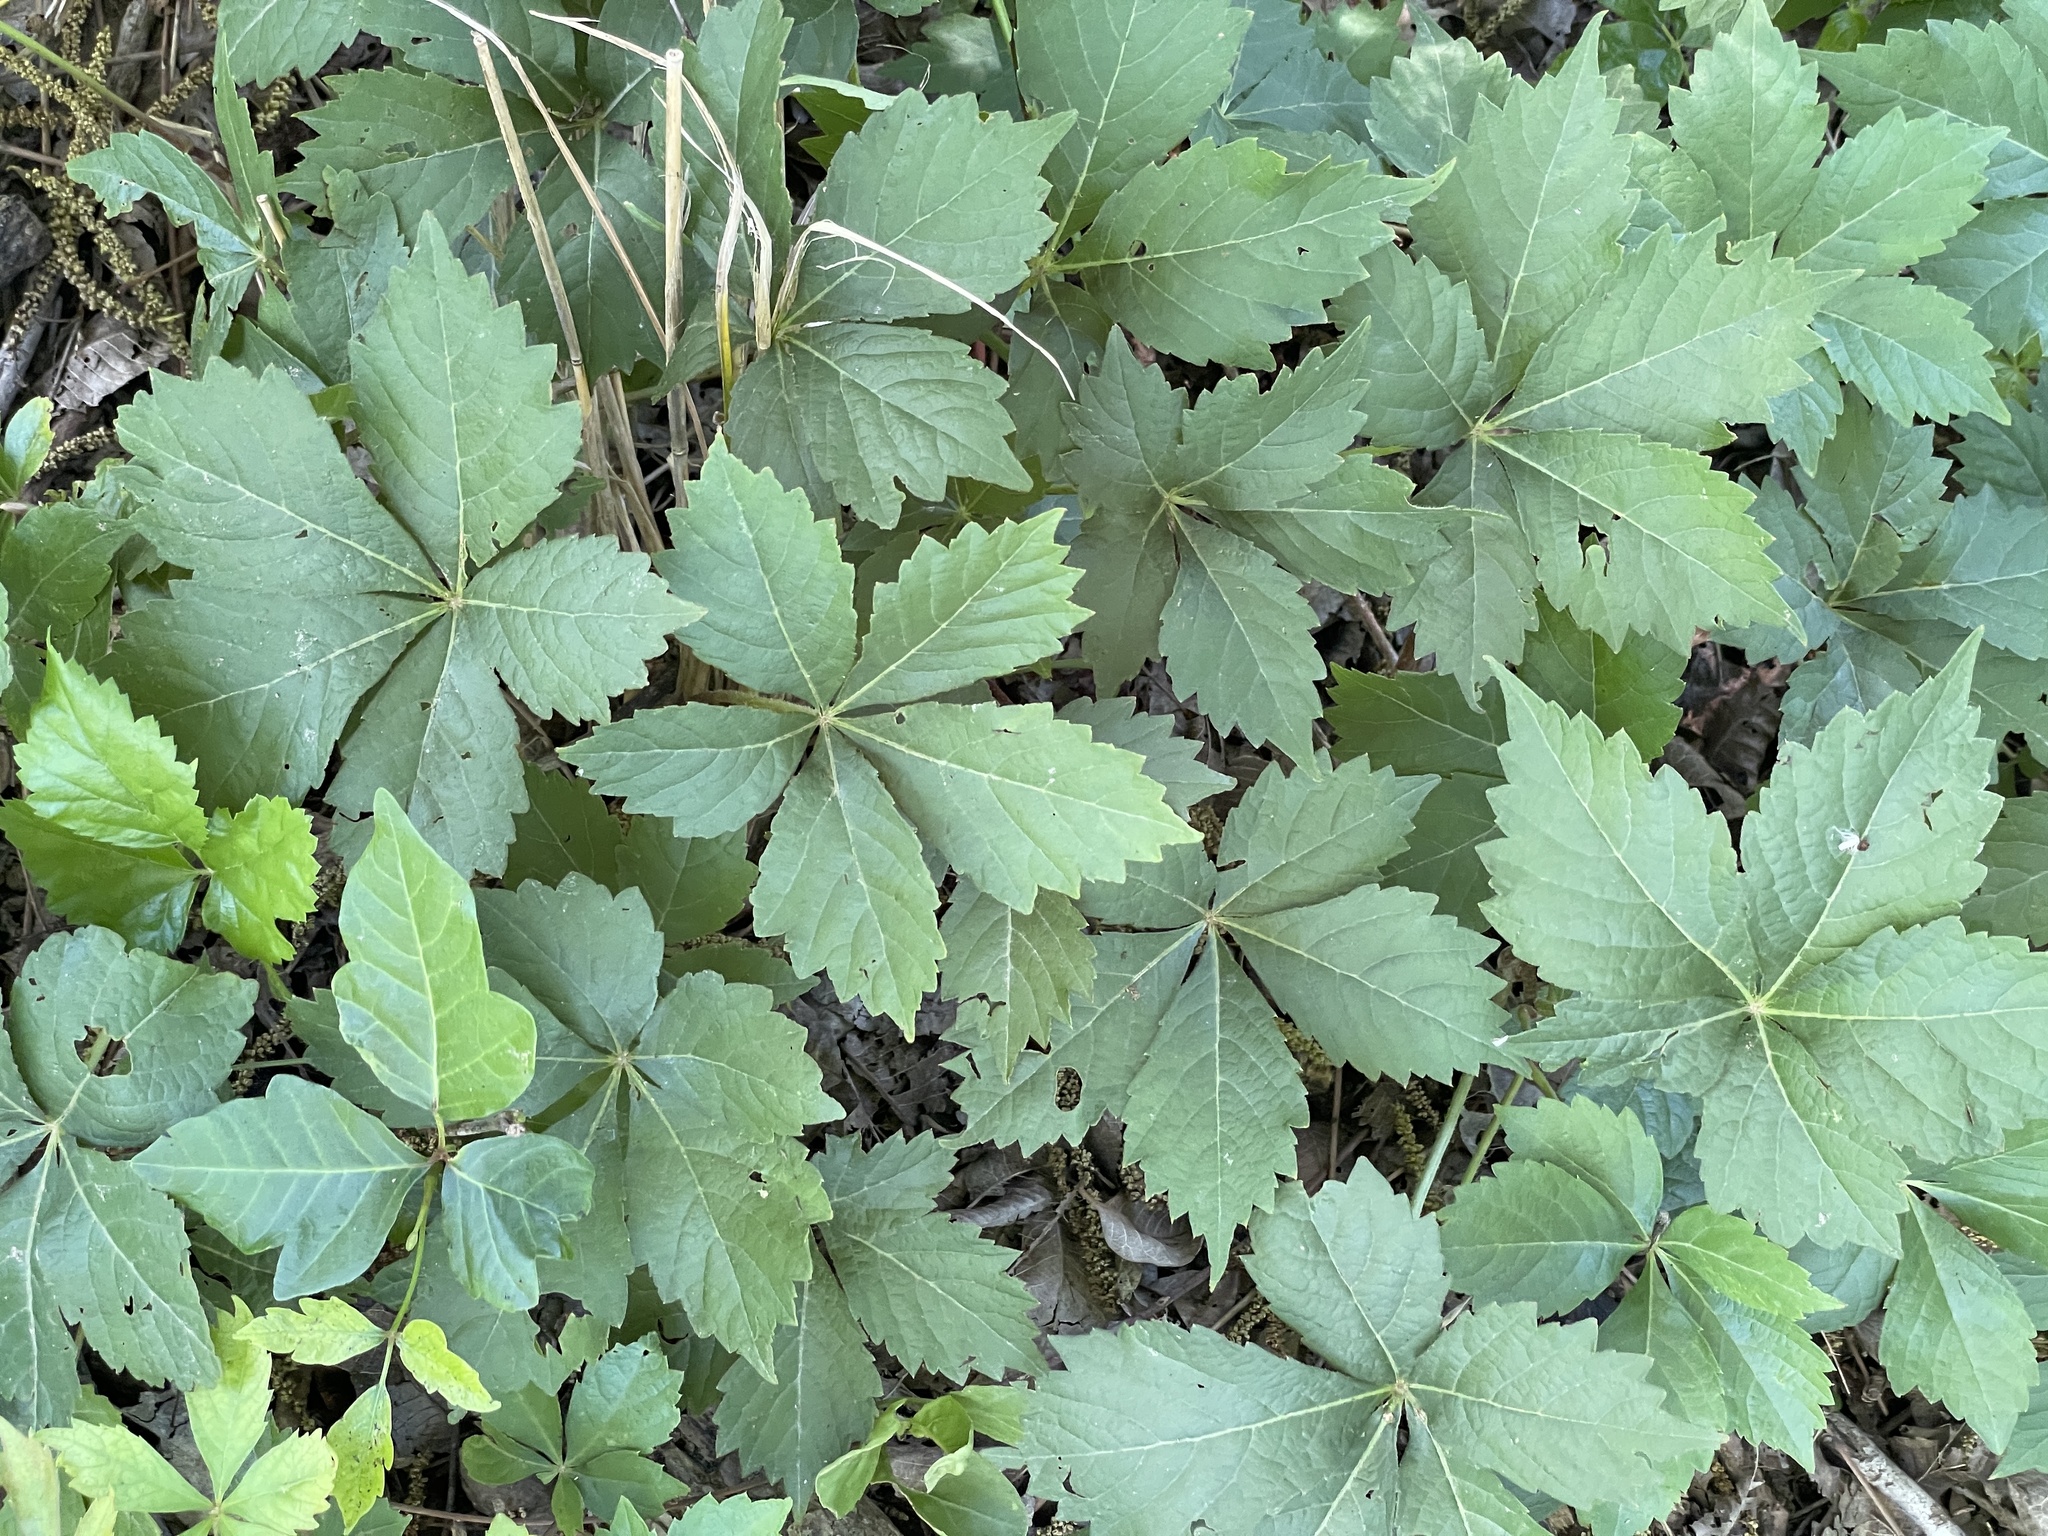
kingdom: Plantae
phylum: Tracheophyta
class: Magnoliopsida
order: Vitales
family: Vitaceae
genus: Parthenocissus
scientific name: Parthenocissus quinquefolia
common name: Virginia-creeper
